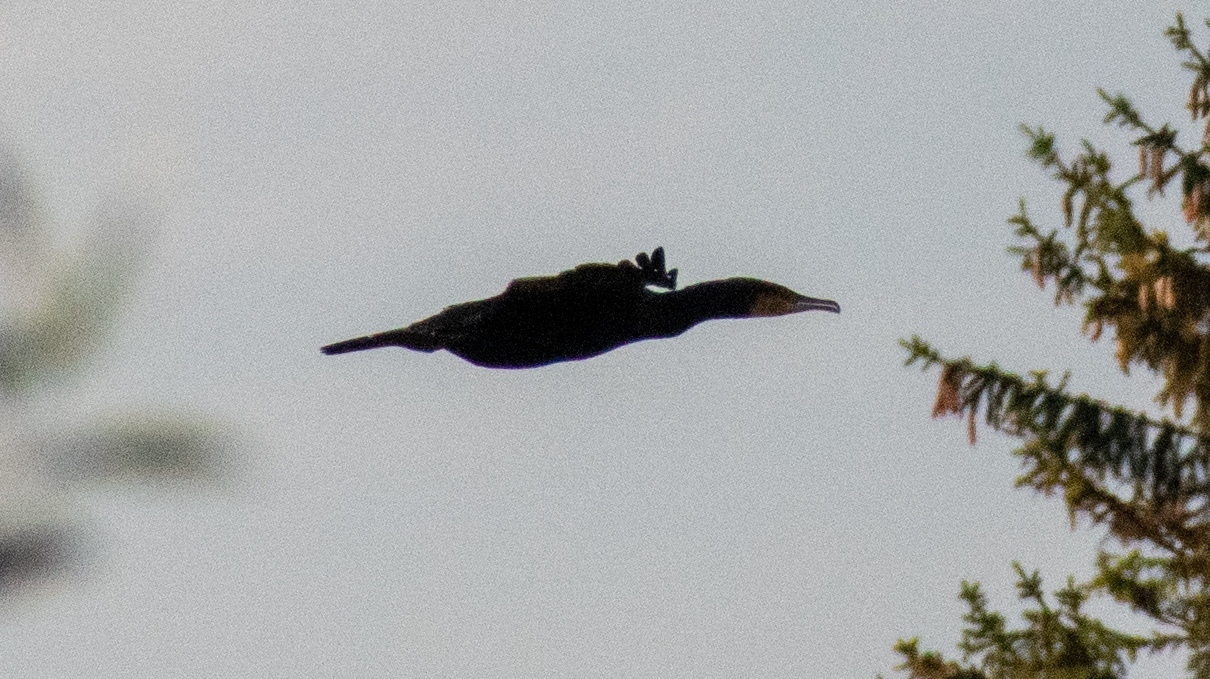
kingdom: Animalia
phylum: Chordata
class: Aves
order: Suliformes
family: Phalacrocoracidae
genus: Phalacrocorax
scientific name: Phalacrocorax carbo
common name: Great cormorant
